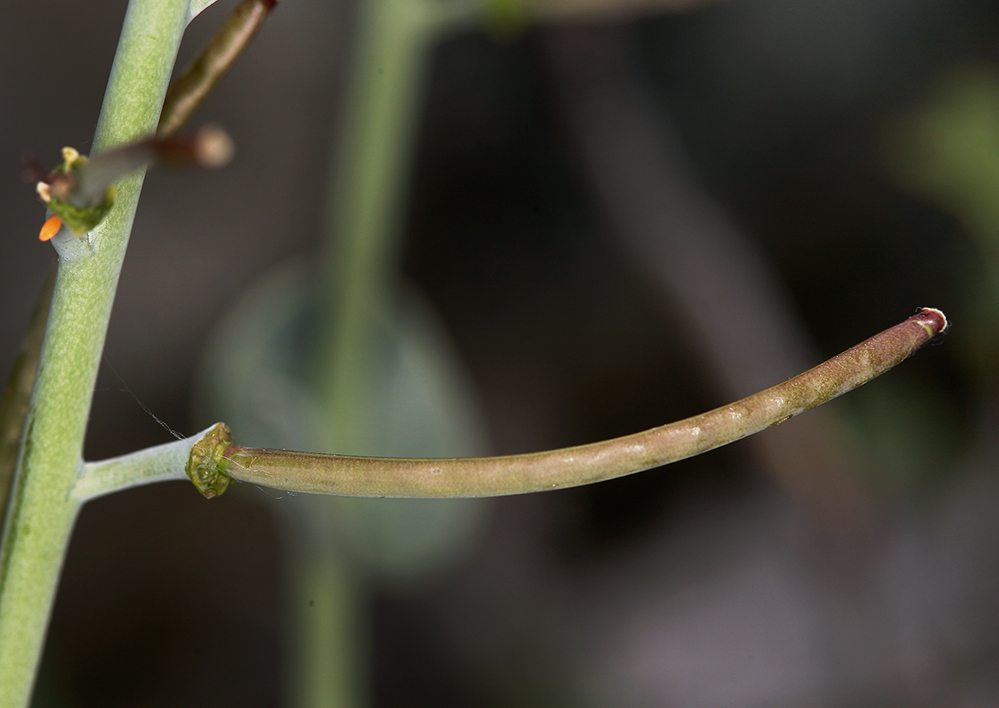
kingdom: Plantae
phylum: Tracheophyta
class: Magnoliopsida
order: Brassicales
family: Brassicaceae
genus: Streptanthus
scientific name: Streptanthus barbatus
